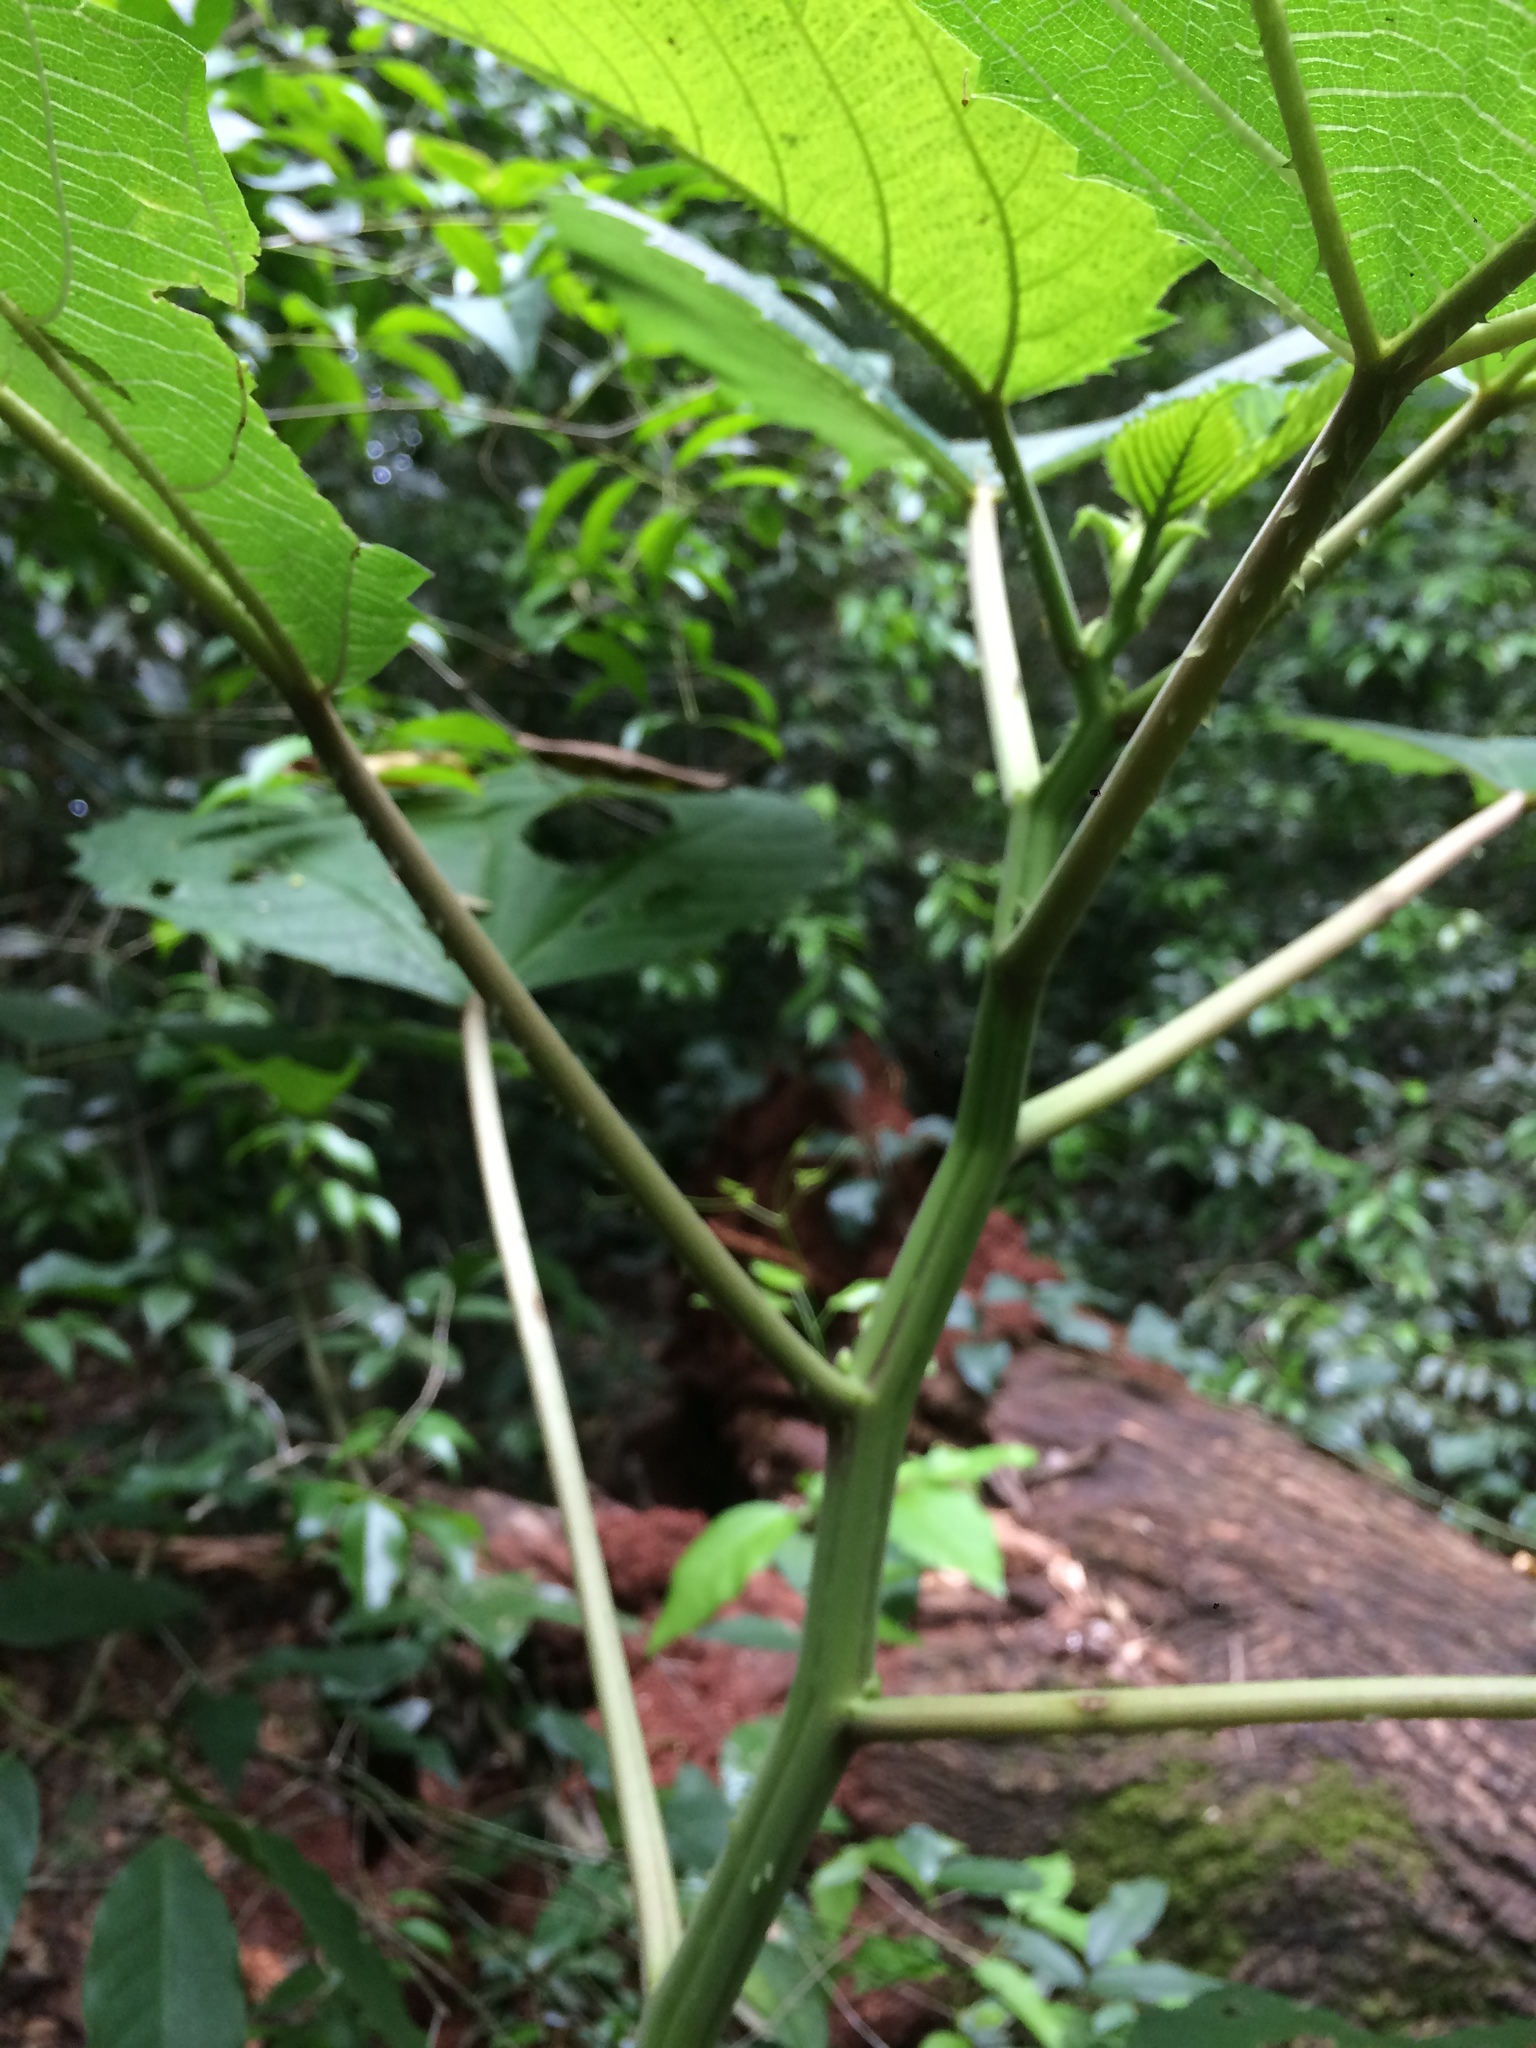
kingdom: Plantae
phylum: Tracheophyta
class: Magnoliopsida
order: Rosales
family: Urticaceae
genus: Urera
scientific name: Urera baccifera
